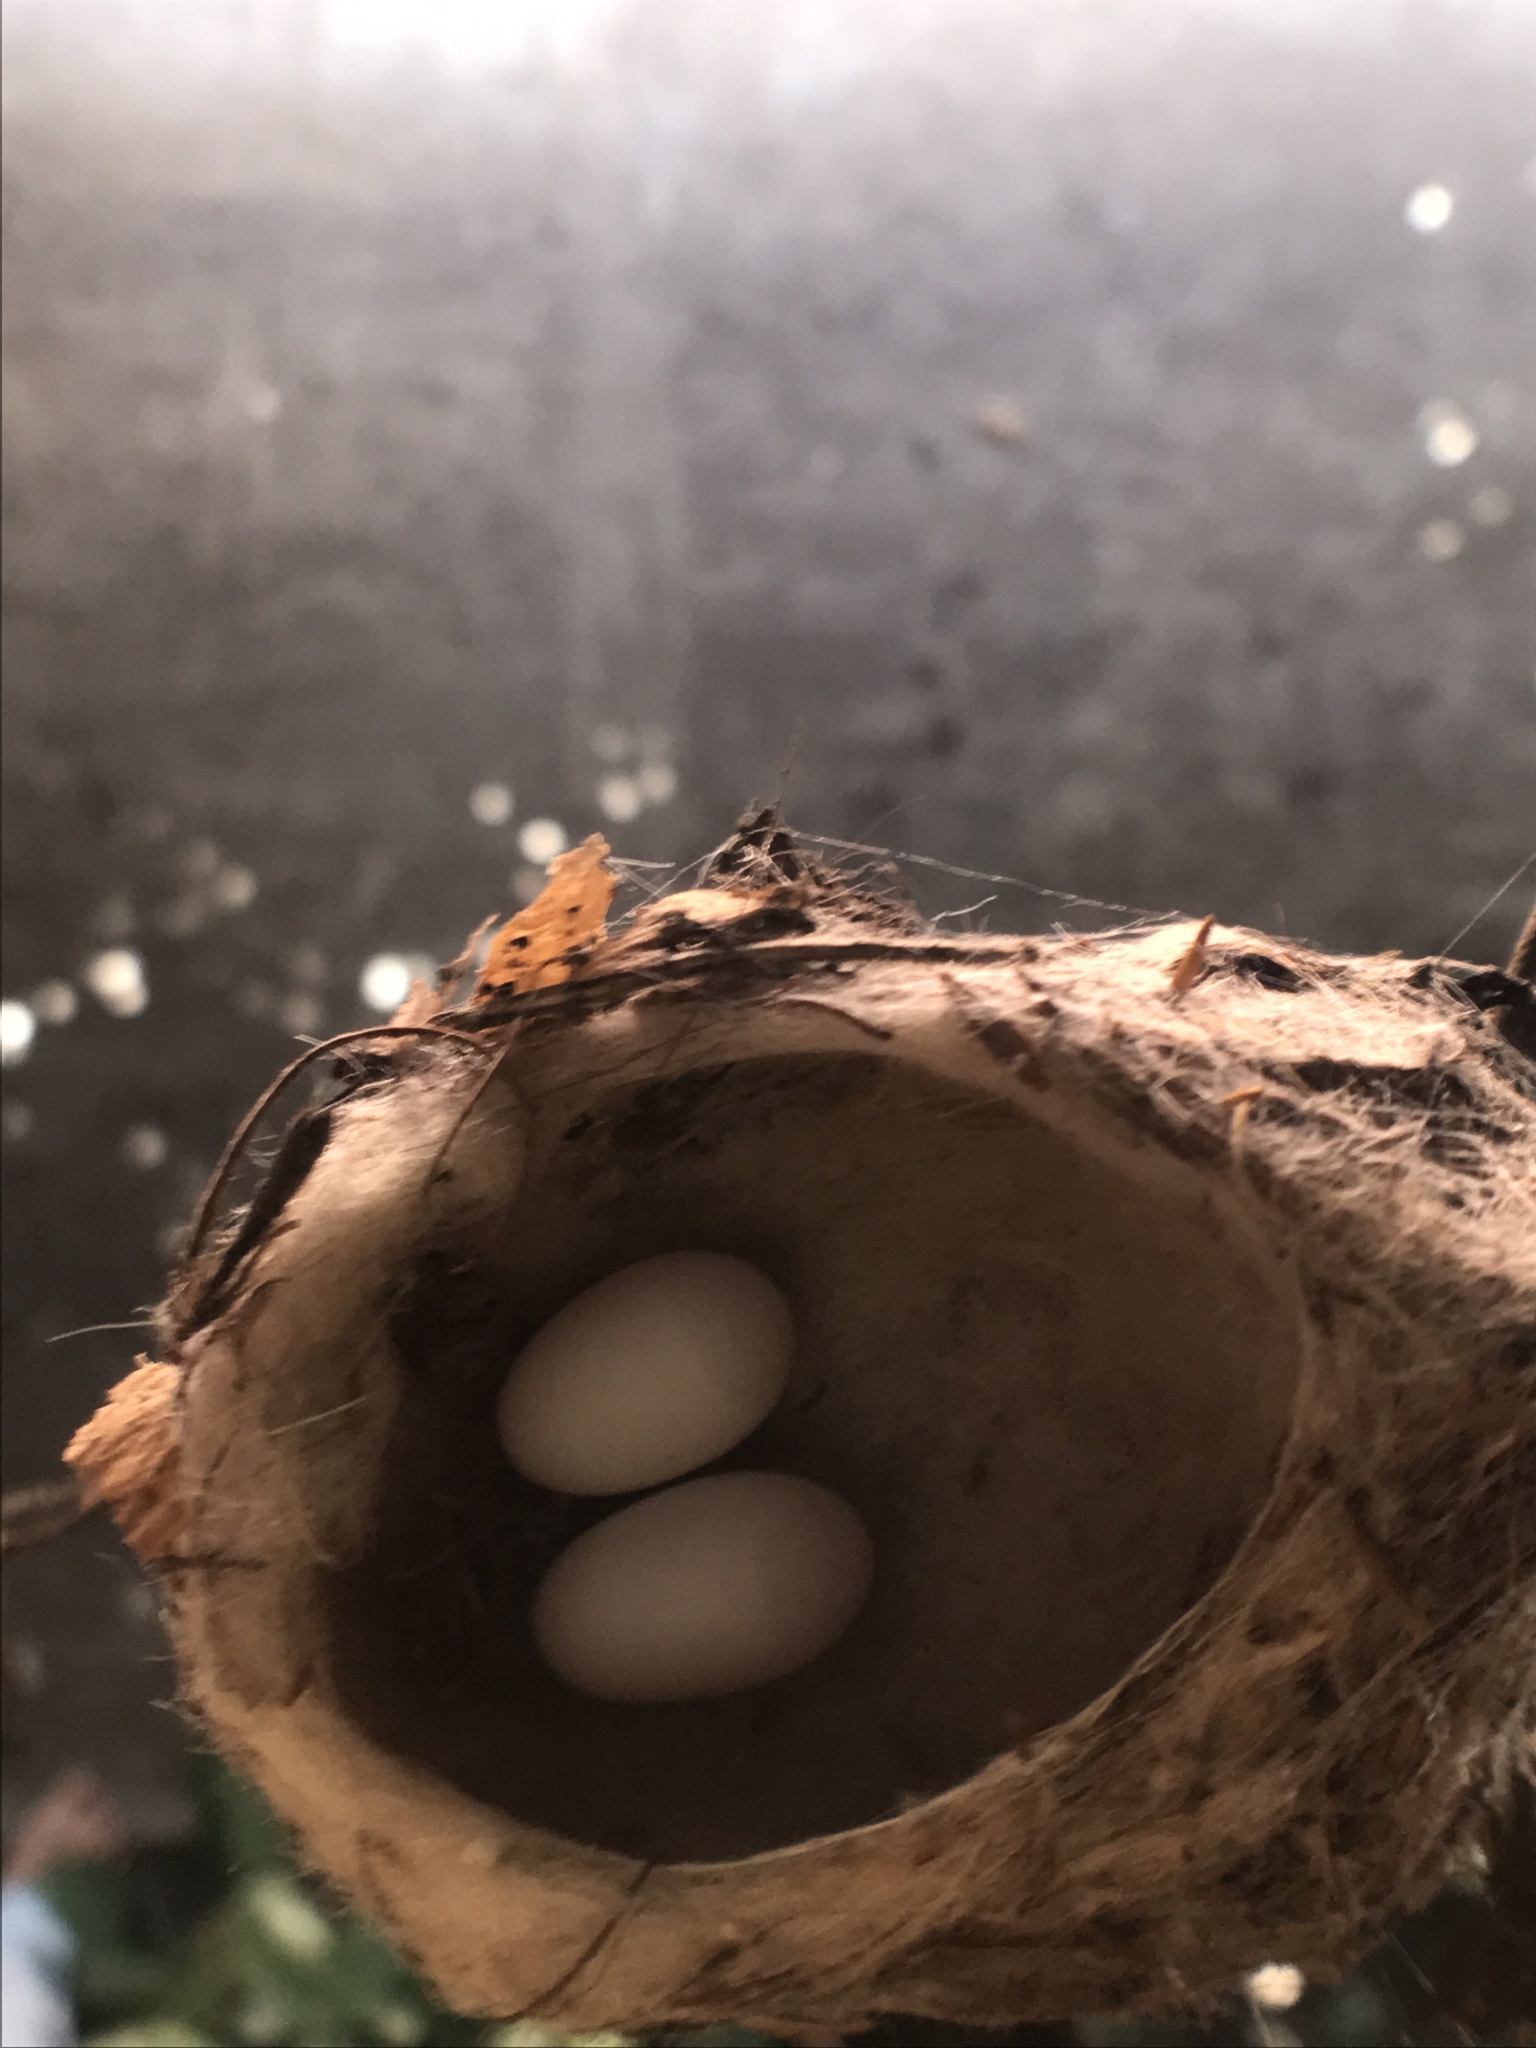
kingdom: Animalia
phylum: Chordata
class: Aves
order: Apodiformes
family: Trochilidae
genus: Chlorostilbon
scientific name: Chlorostilbon lucidus
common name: Glittering-bellied emerald
